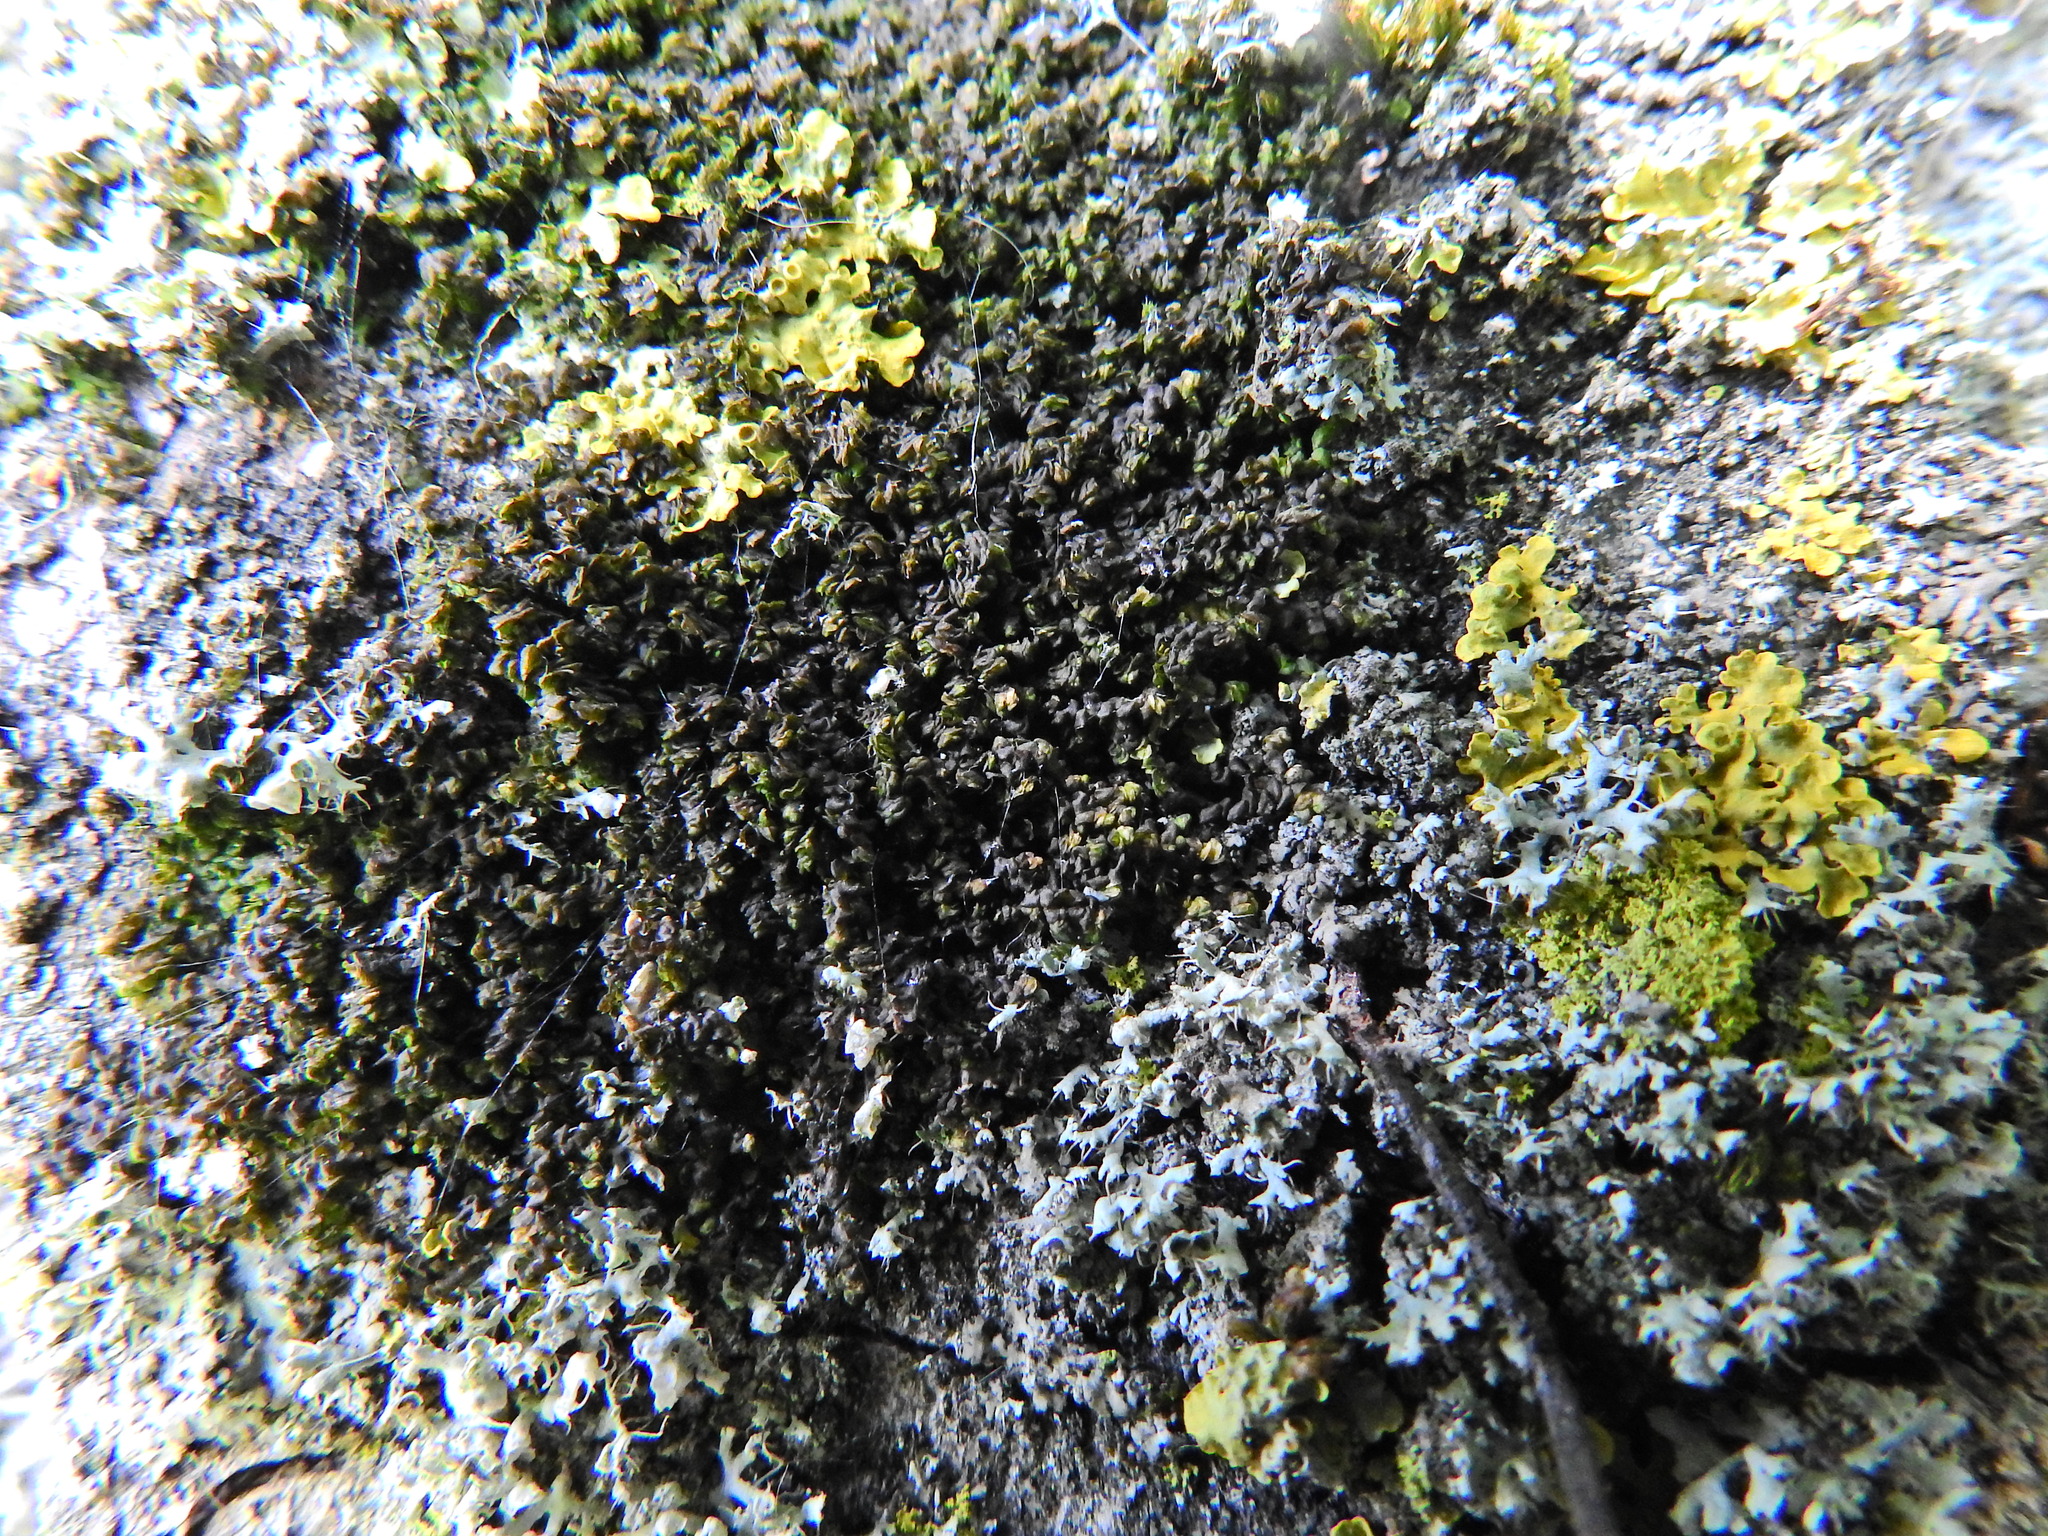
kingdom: Plantae
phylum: Marchantiophyta
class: Jungermanniopsida
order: Porellales
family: Frullaniaceae
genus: Frullania
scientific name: Frullania dilatata
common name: Dilated scalewort
